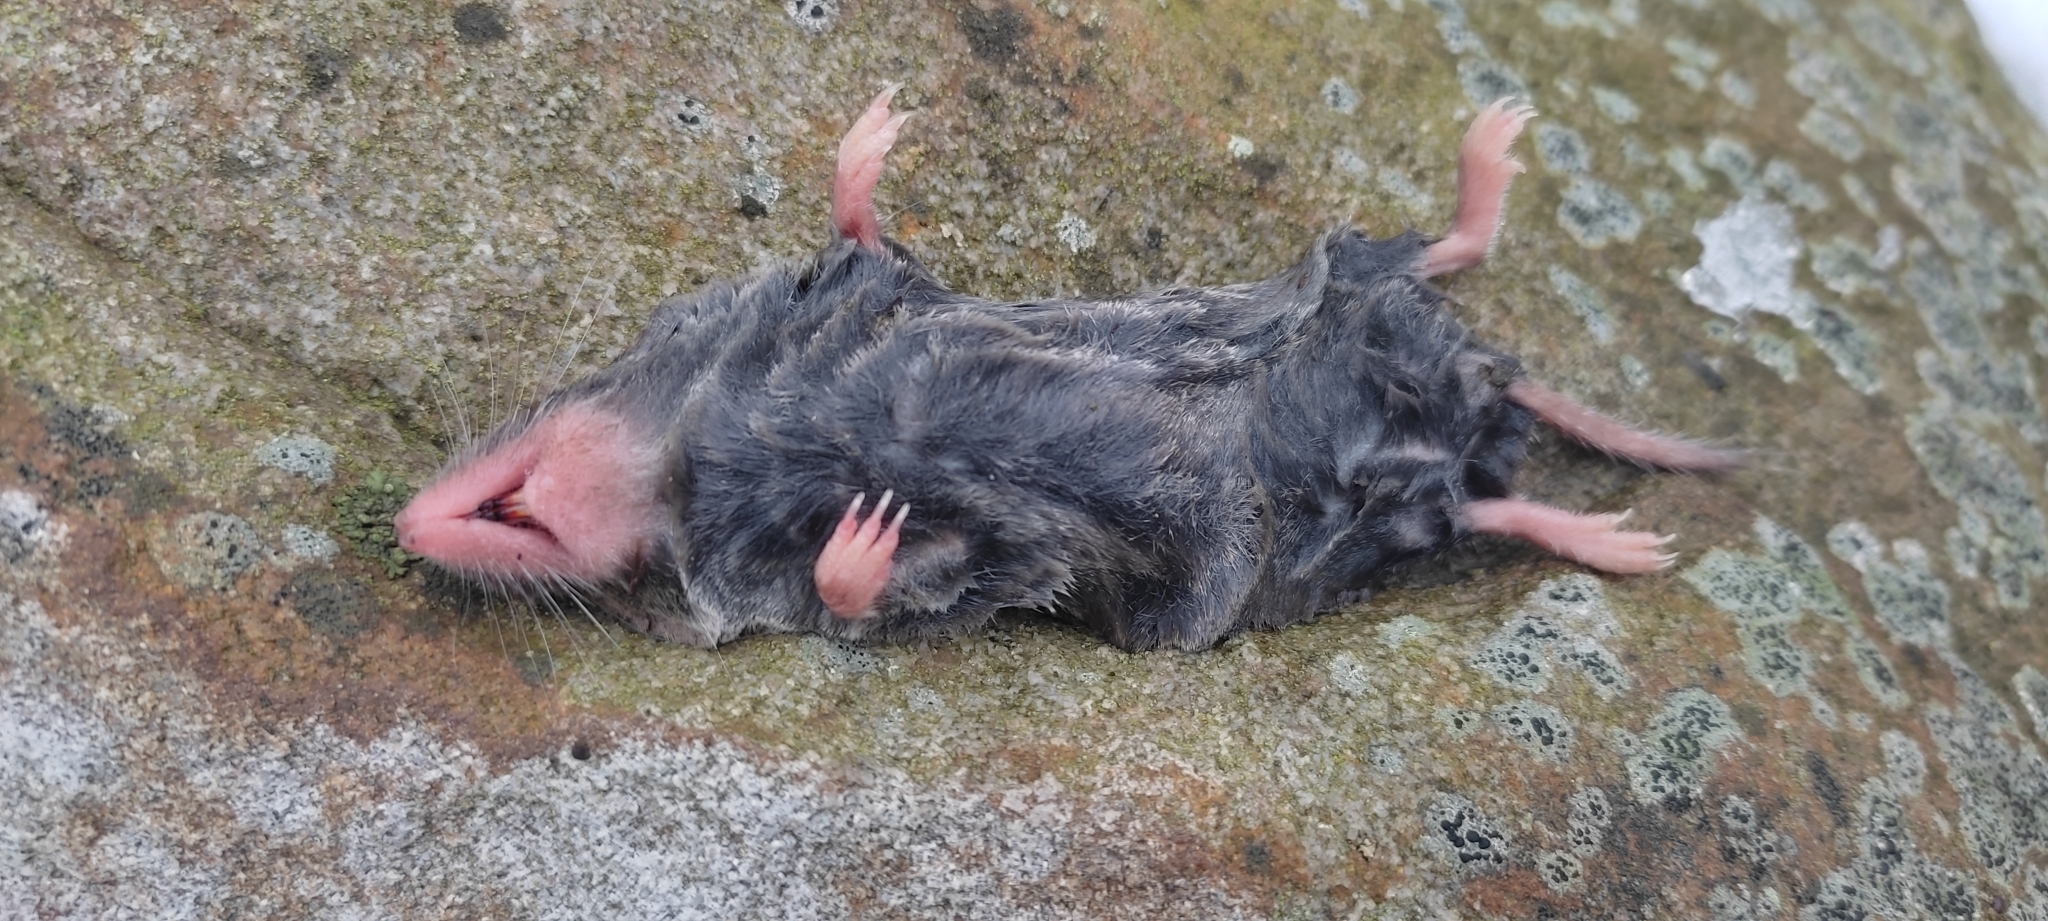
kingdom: Animalia
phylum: Chordata
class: Mammalia
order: Soricomorpha
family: Soricidae
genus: Cryptotis
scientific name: Cryptotis parva
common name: North american least shrew
